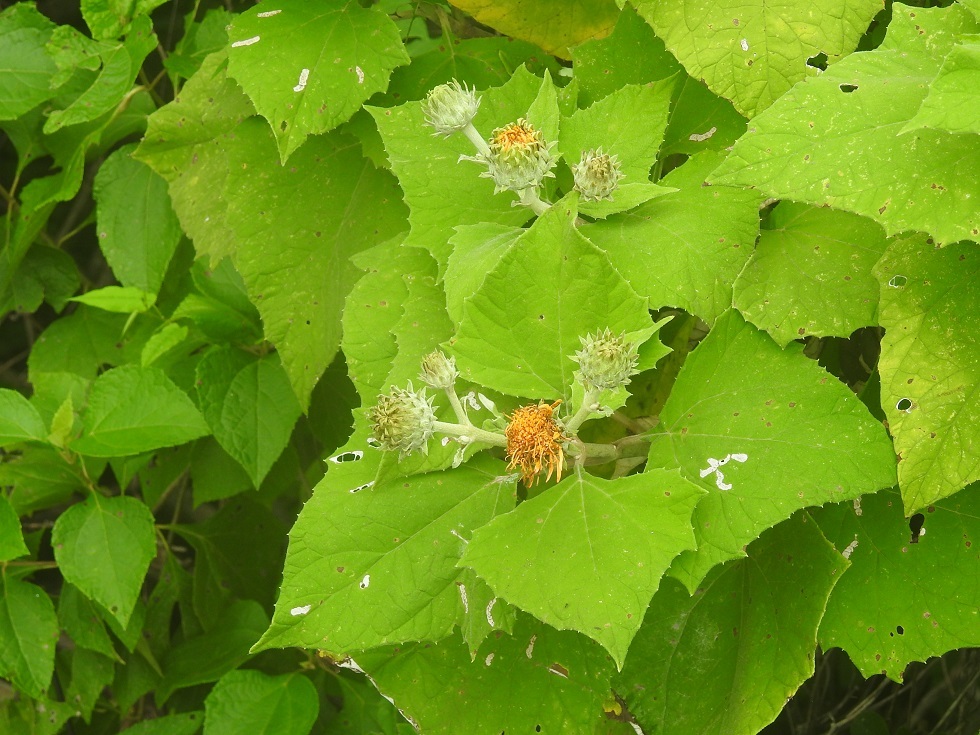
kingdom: Plantae
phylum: Tracheophyta
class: Magnoliopsida
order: Asterales
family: Asteraceae
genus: Sinclairia
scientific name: Sinclairia andrieuxii
